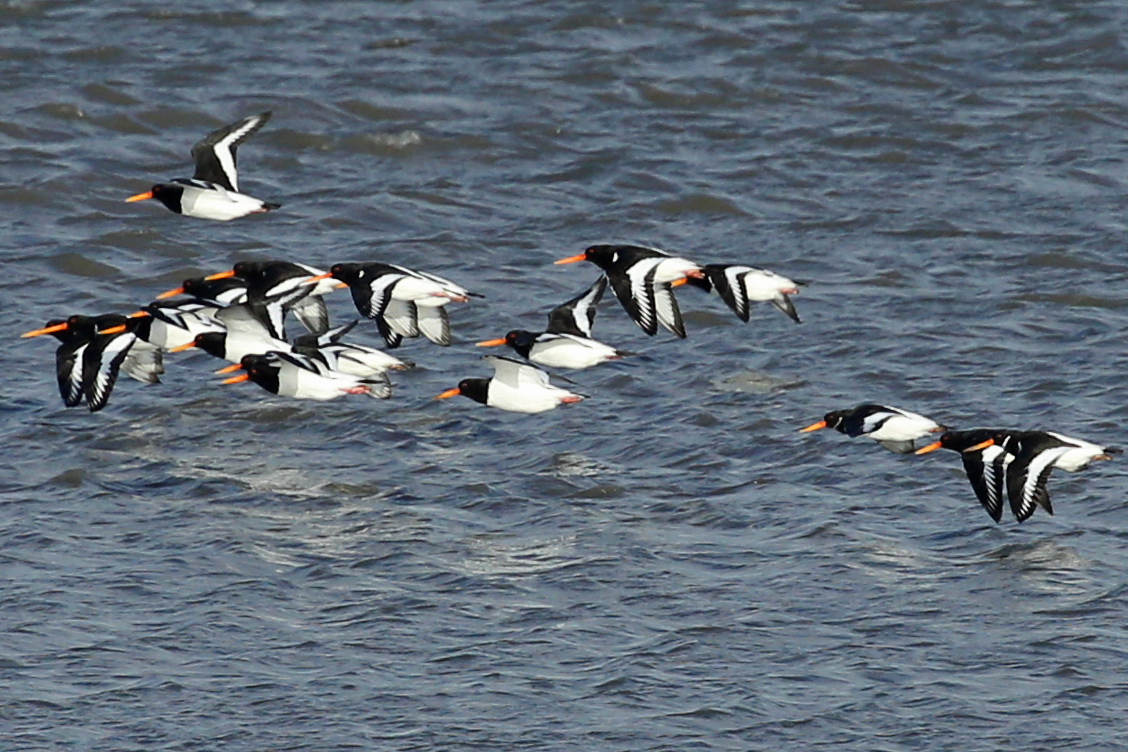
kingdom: Animalia
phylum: Chordata
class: Aves
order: Charadriiformes
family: Haematopodidae
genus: Haematopus
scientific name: Haematopus ostralegus
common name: Eurasian oystercatcher
